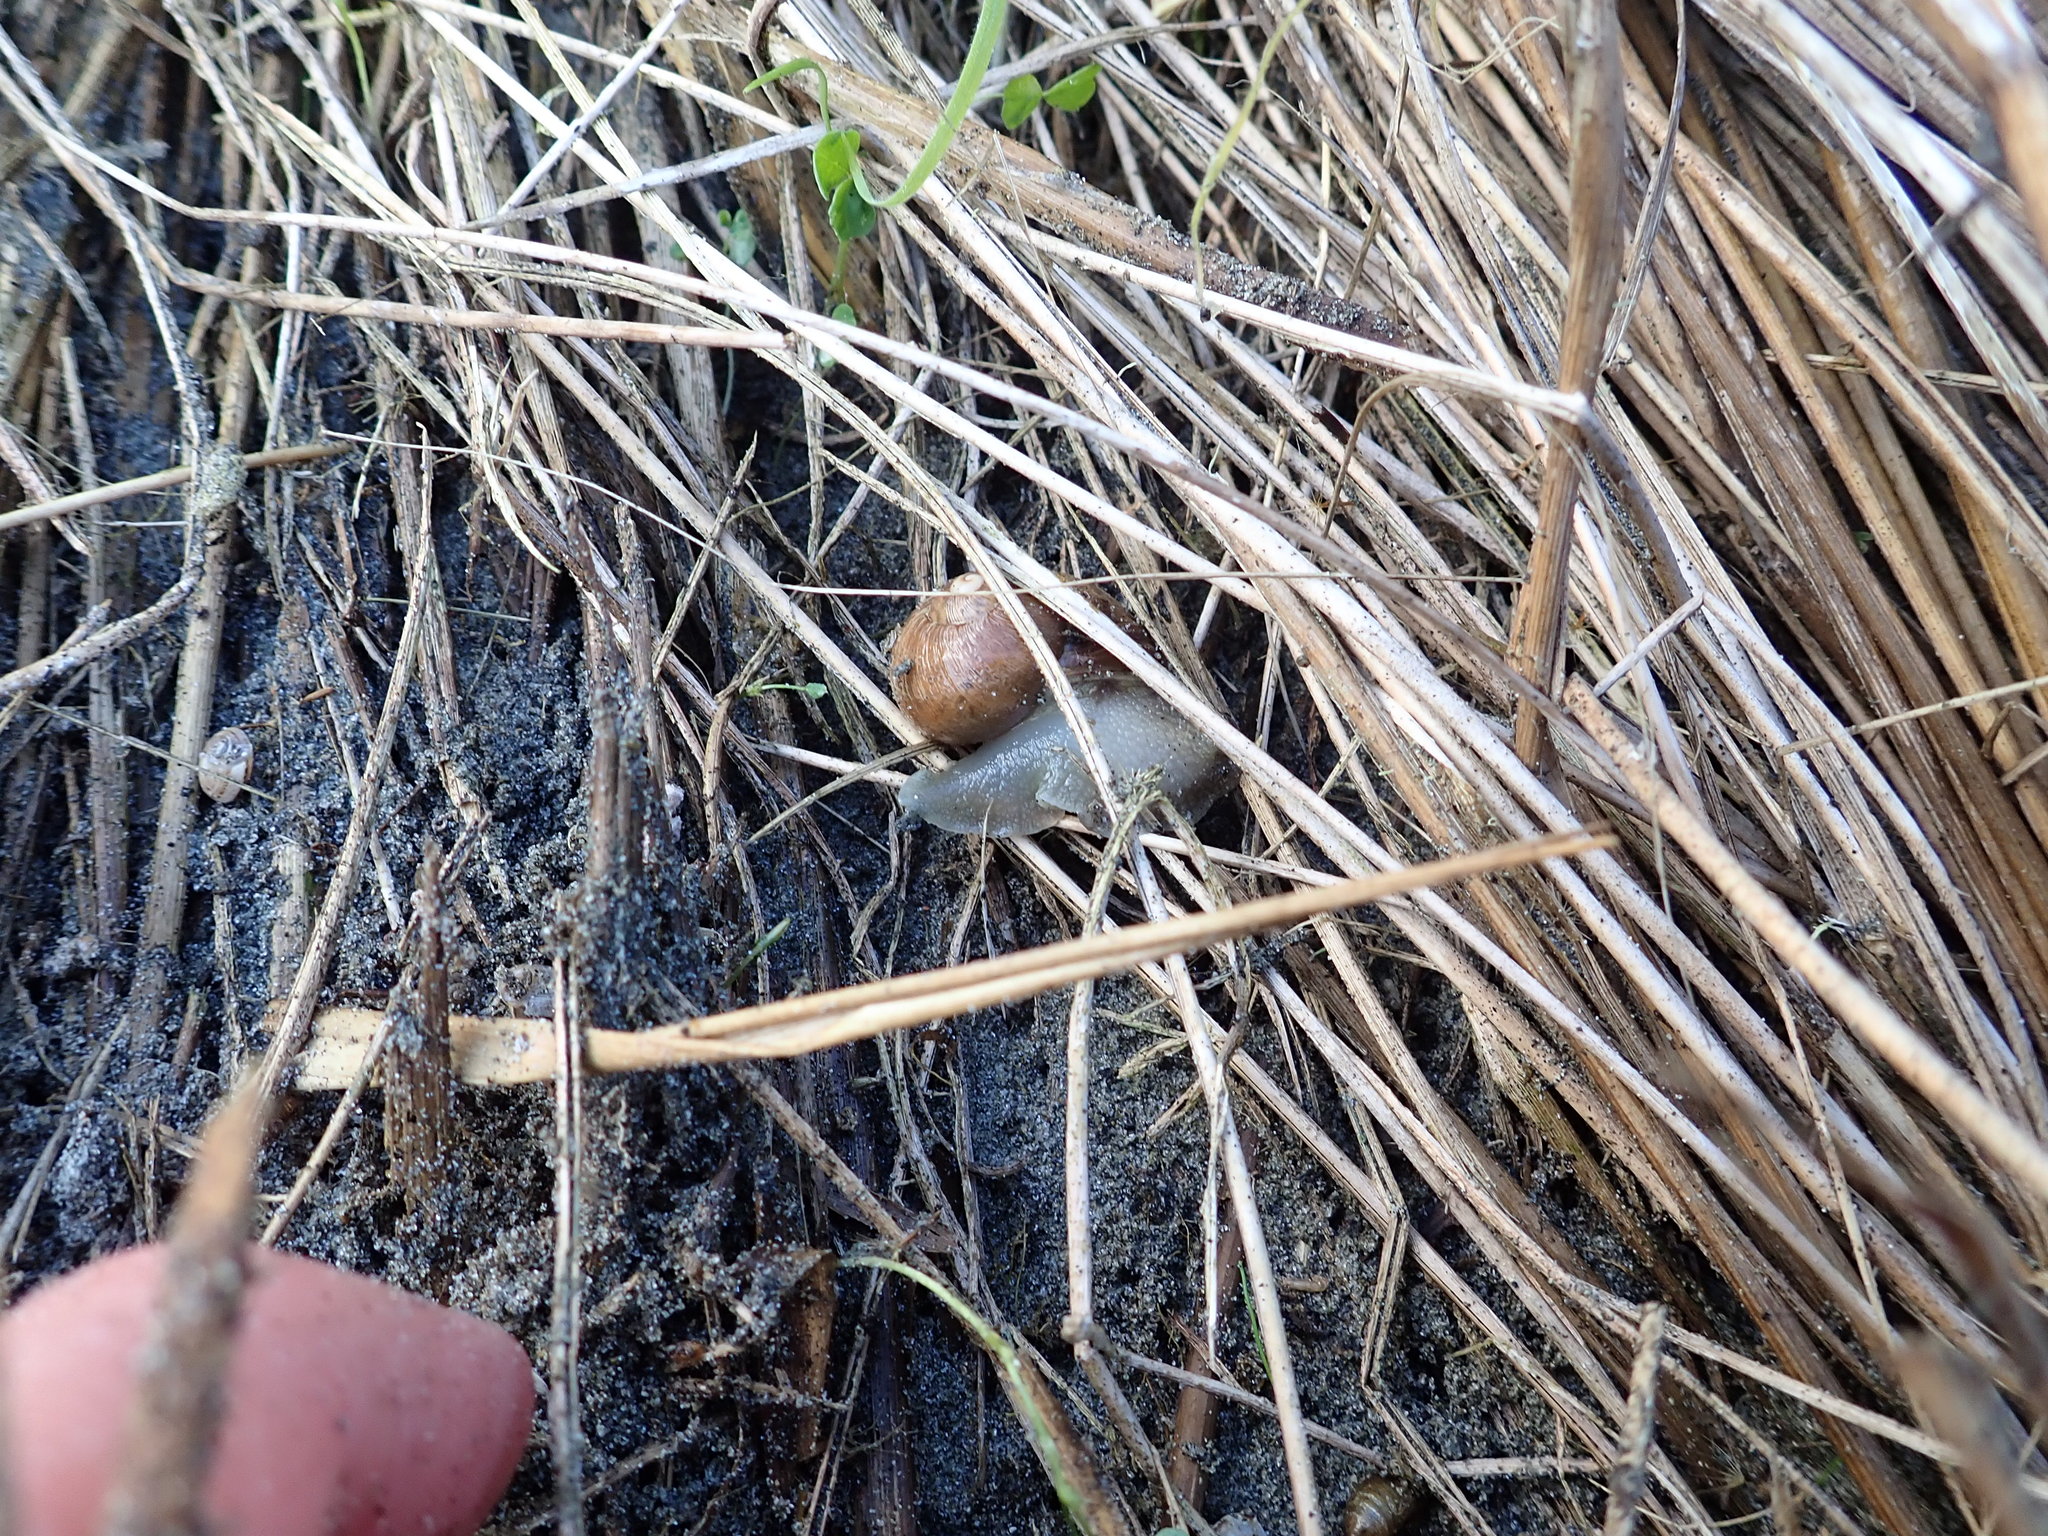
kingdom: Animalia
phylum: Mollusca
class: Gastropoda
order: Stylommatophora
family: Helicidae
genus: Cornu
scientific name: Cornu aspersum
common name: Brown garden snail
